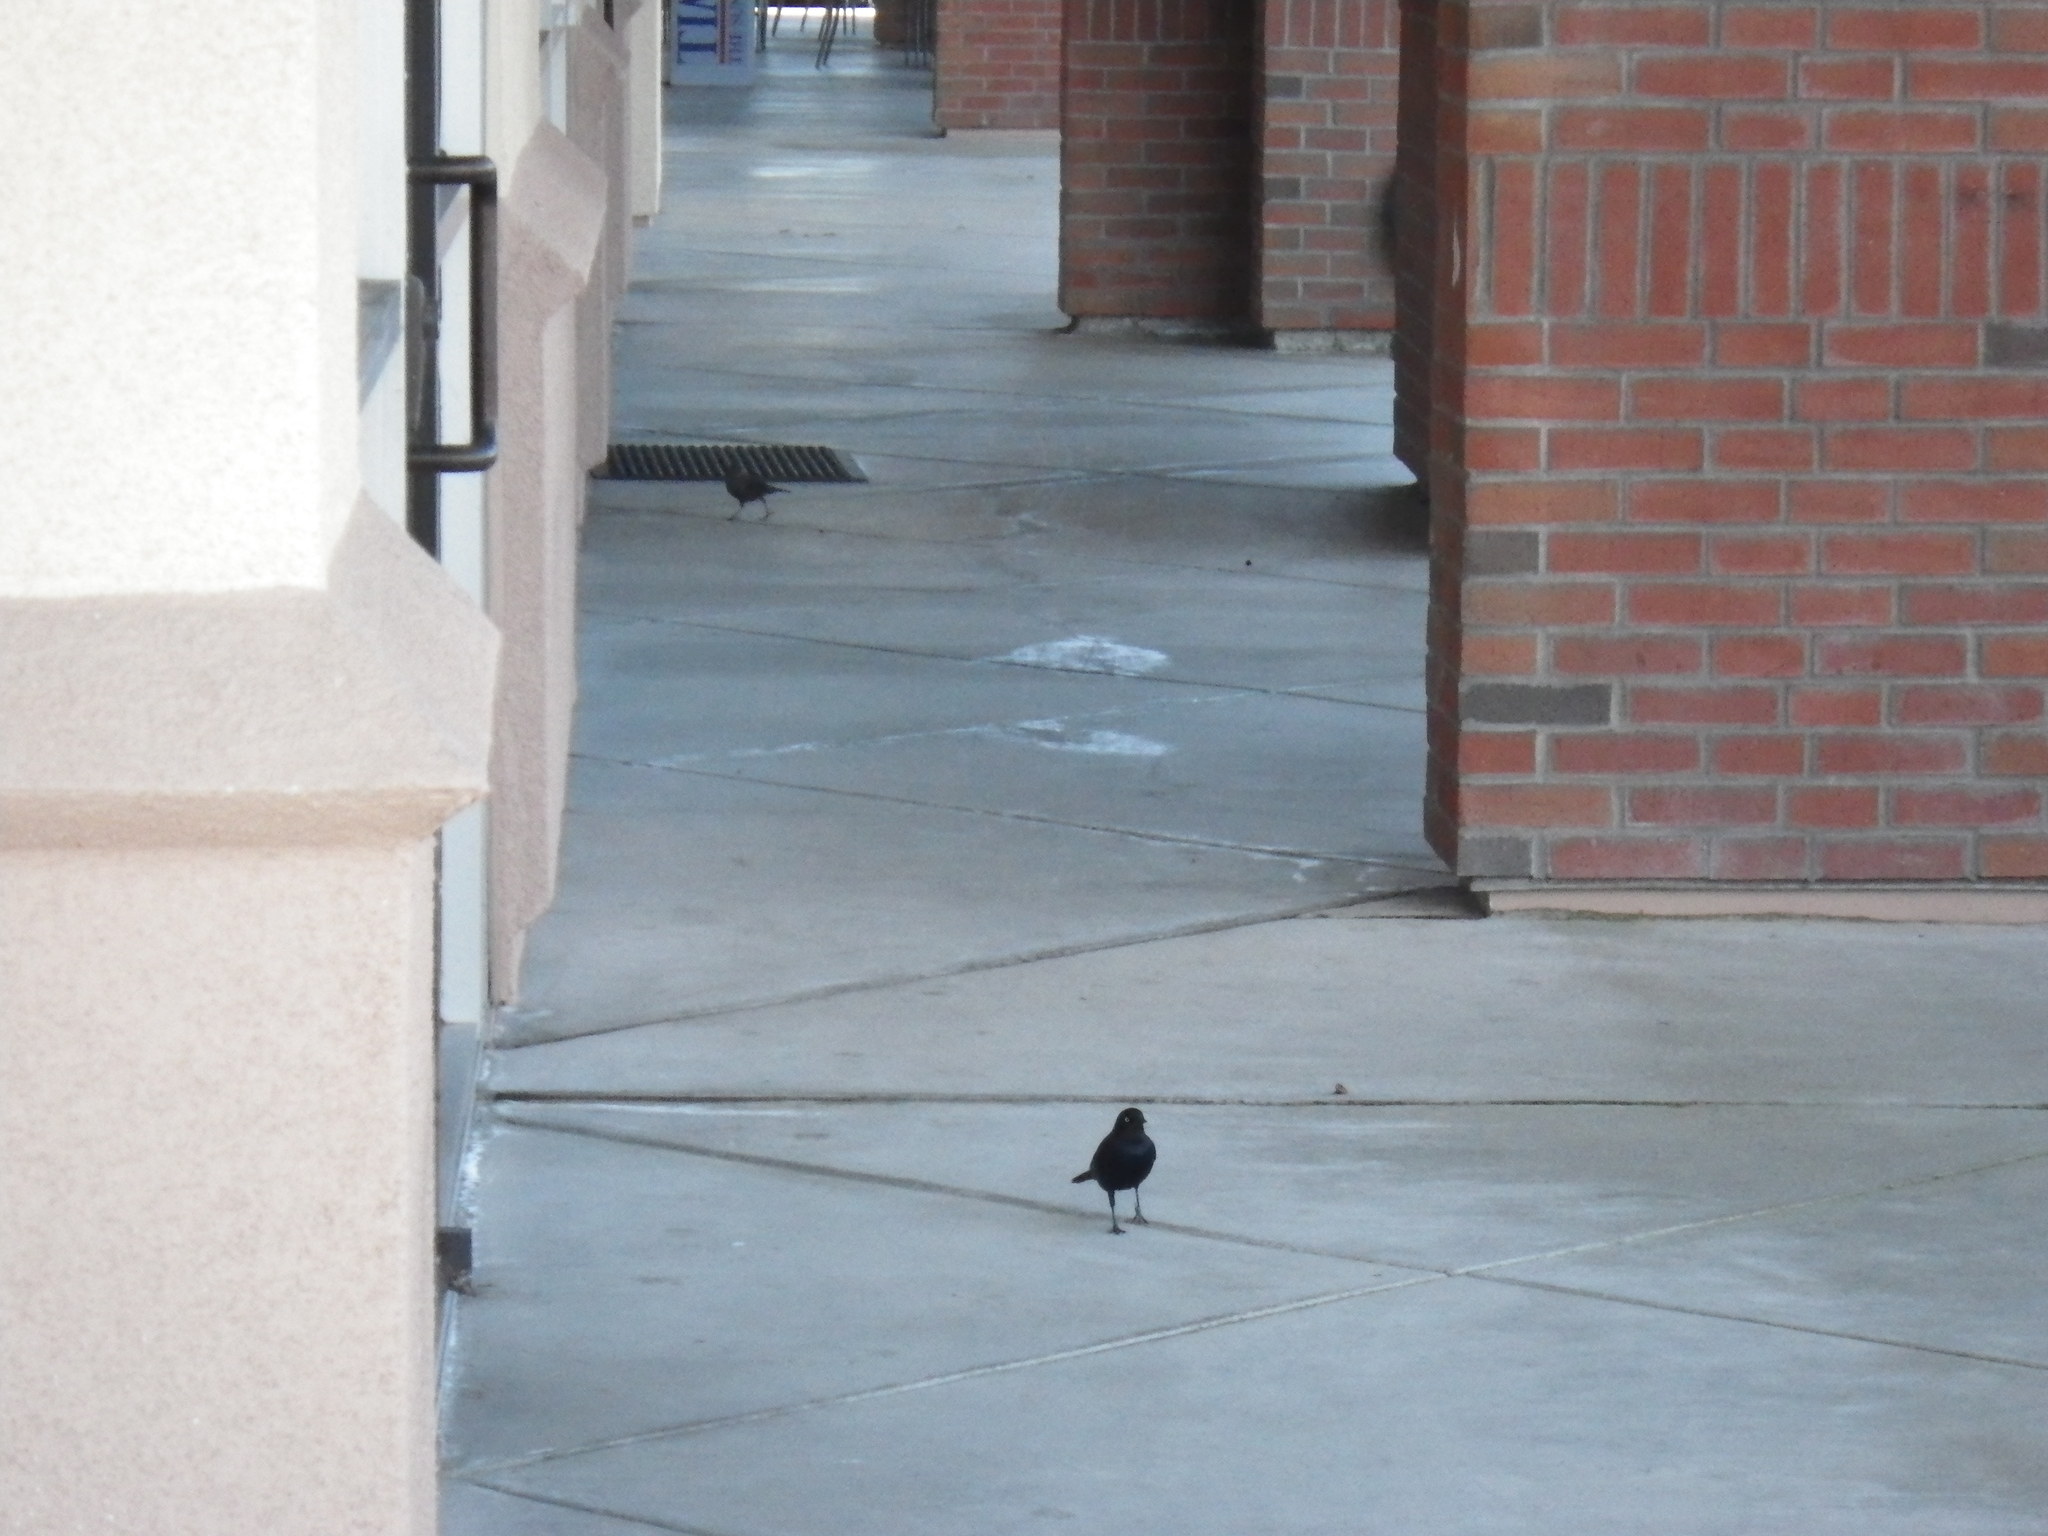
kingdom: Animalia
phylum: Chordata
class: Aves
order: Passeriformes
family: Icteridae
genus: Euphagus
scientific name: Euphagus cyanocephalus
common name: Brewer's blackbird
